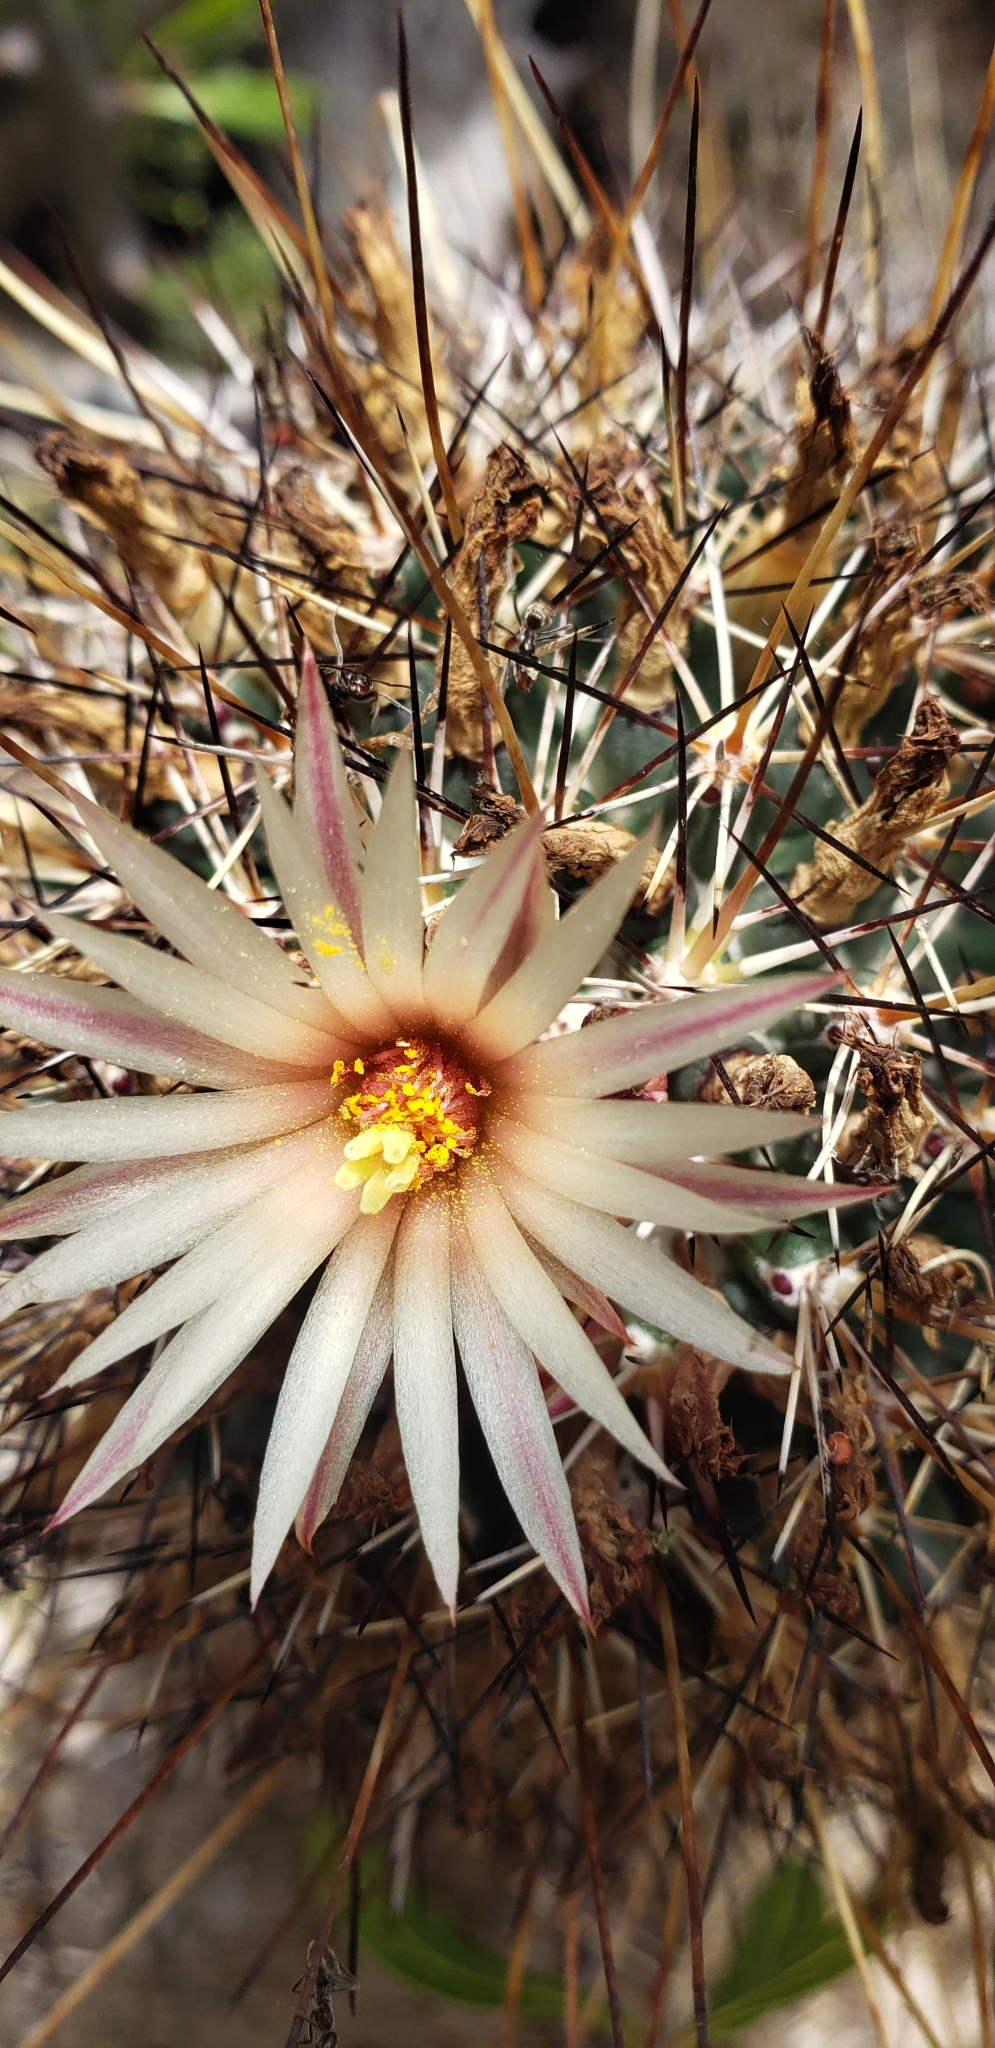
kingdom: Plantae
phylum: Tracheophyta
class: Magnoliopsida
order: Caryophyllales
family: Cactaceae
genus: Coryphantha
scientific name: Coryphantha clavata
